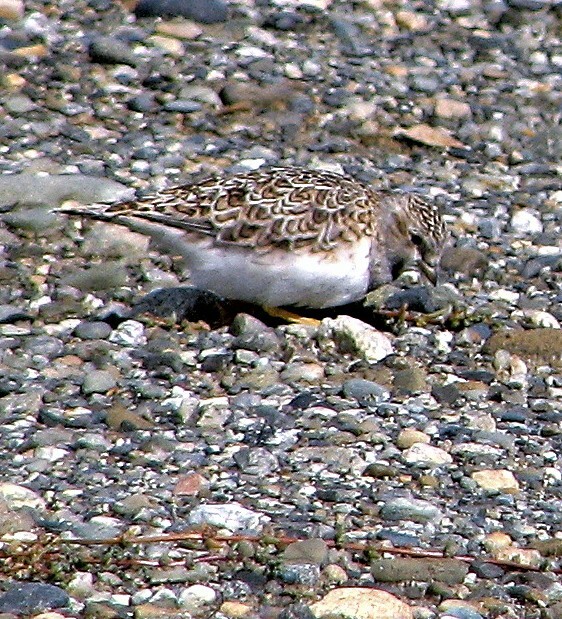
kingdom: Animalia
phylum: Chordata
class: Aves
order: Charadriiformes
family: Thinocoridae
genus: Thinocorus
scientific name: Thinocorus rumicivorus
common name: Least seedsnipe
